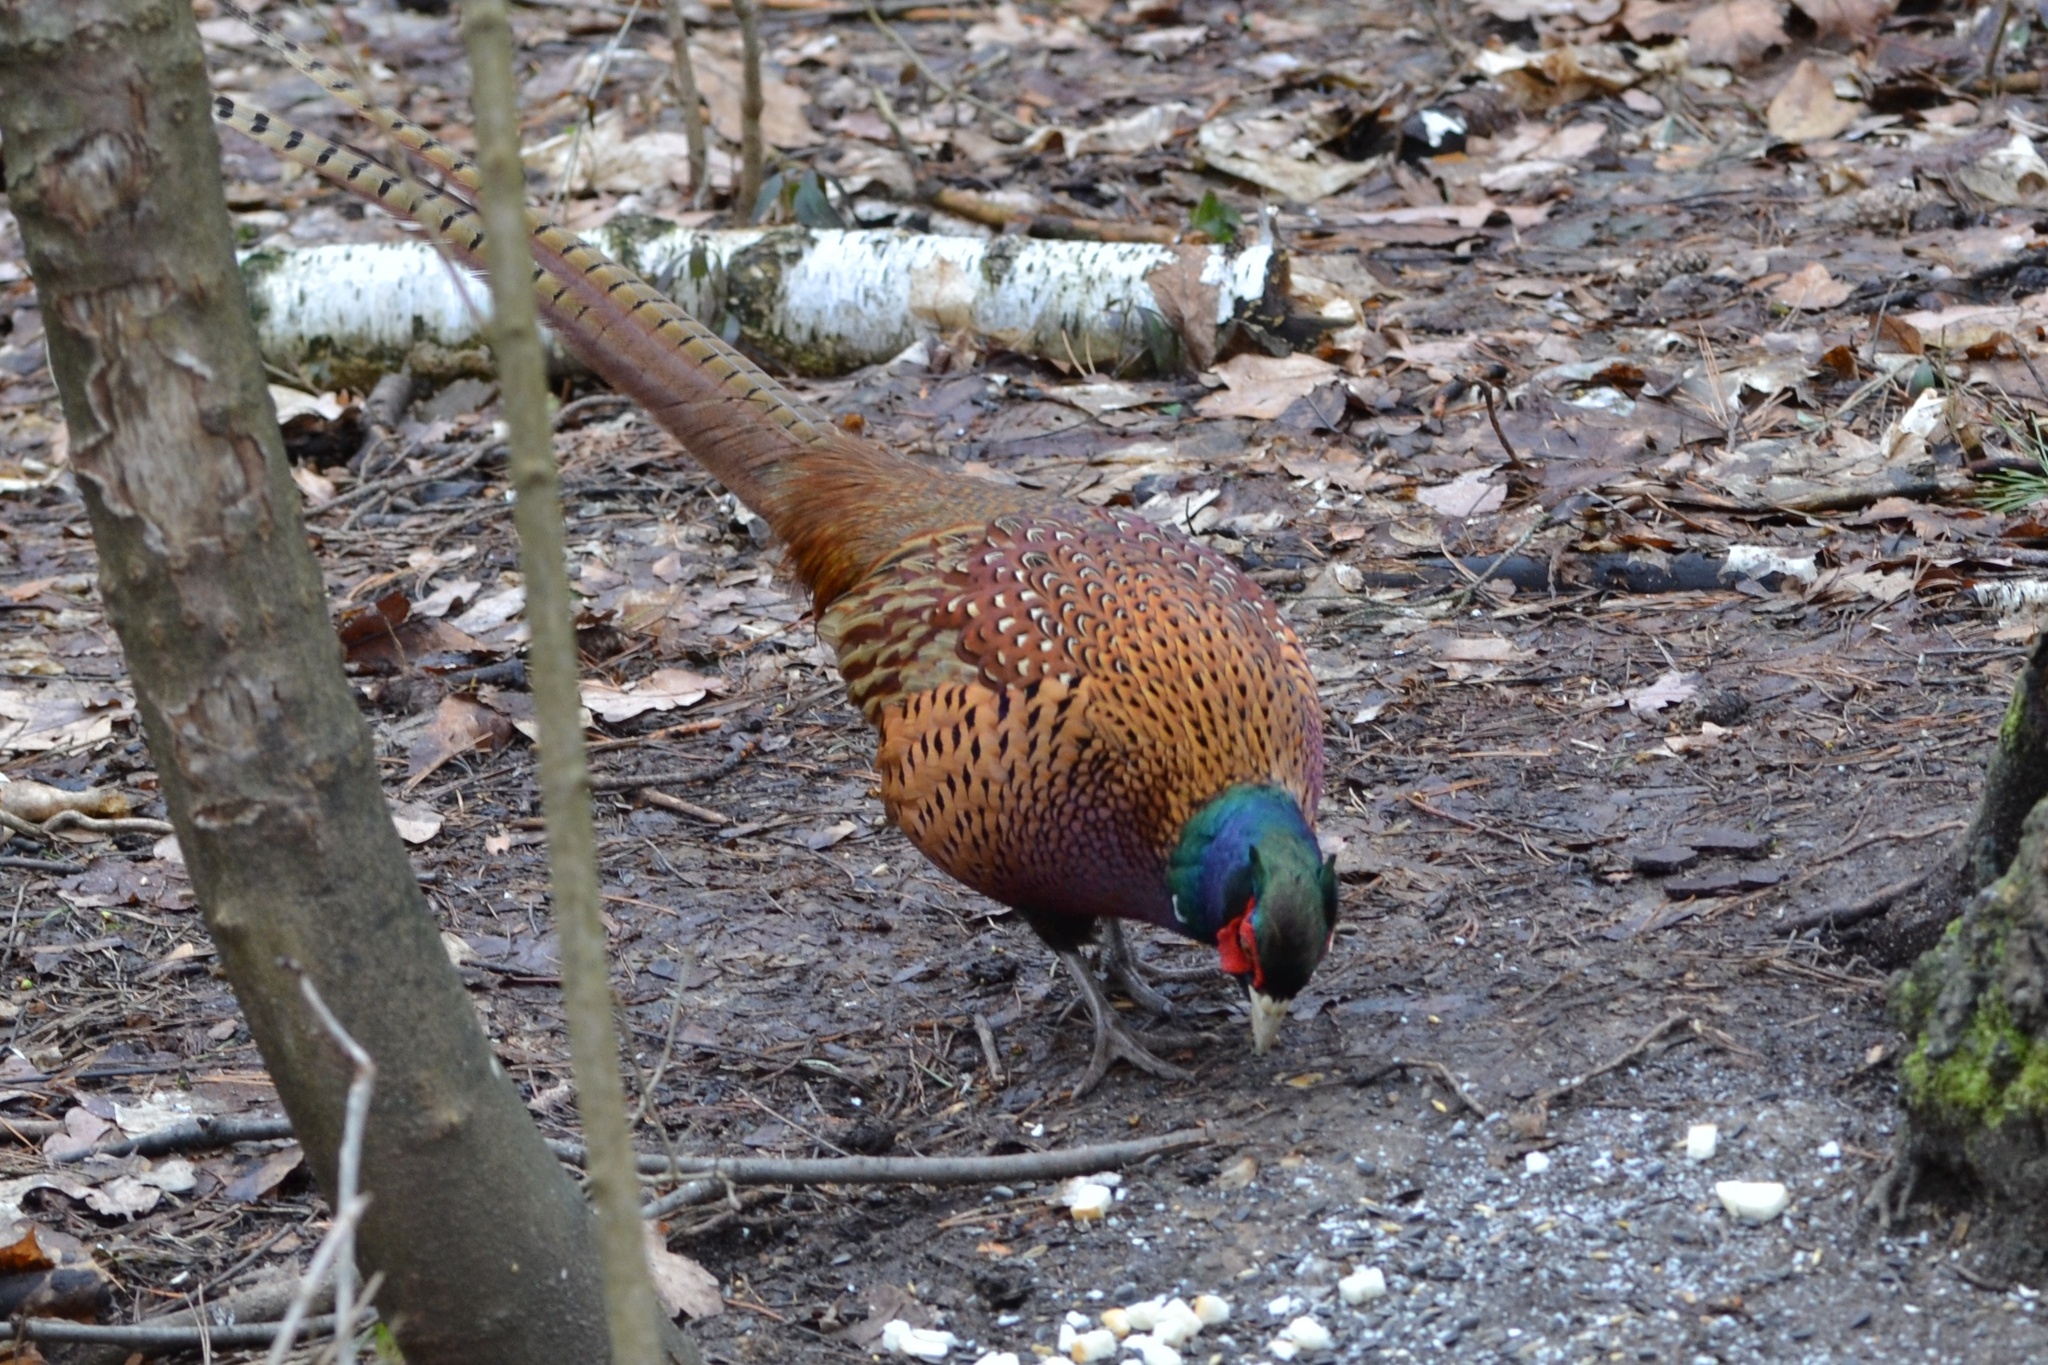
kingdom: Animalia
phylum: Chordata
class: Aves
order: Galliformes
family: Phasianidae
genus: Phasianus
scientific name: Phasianus colchicus
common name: Common pheasant
